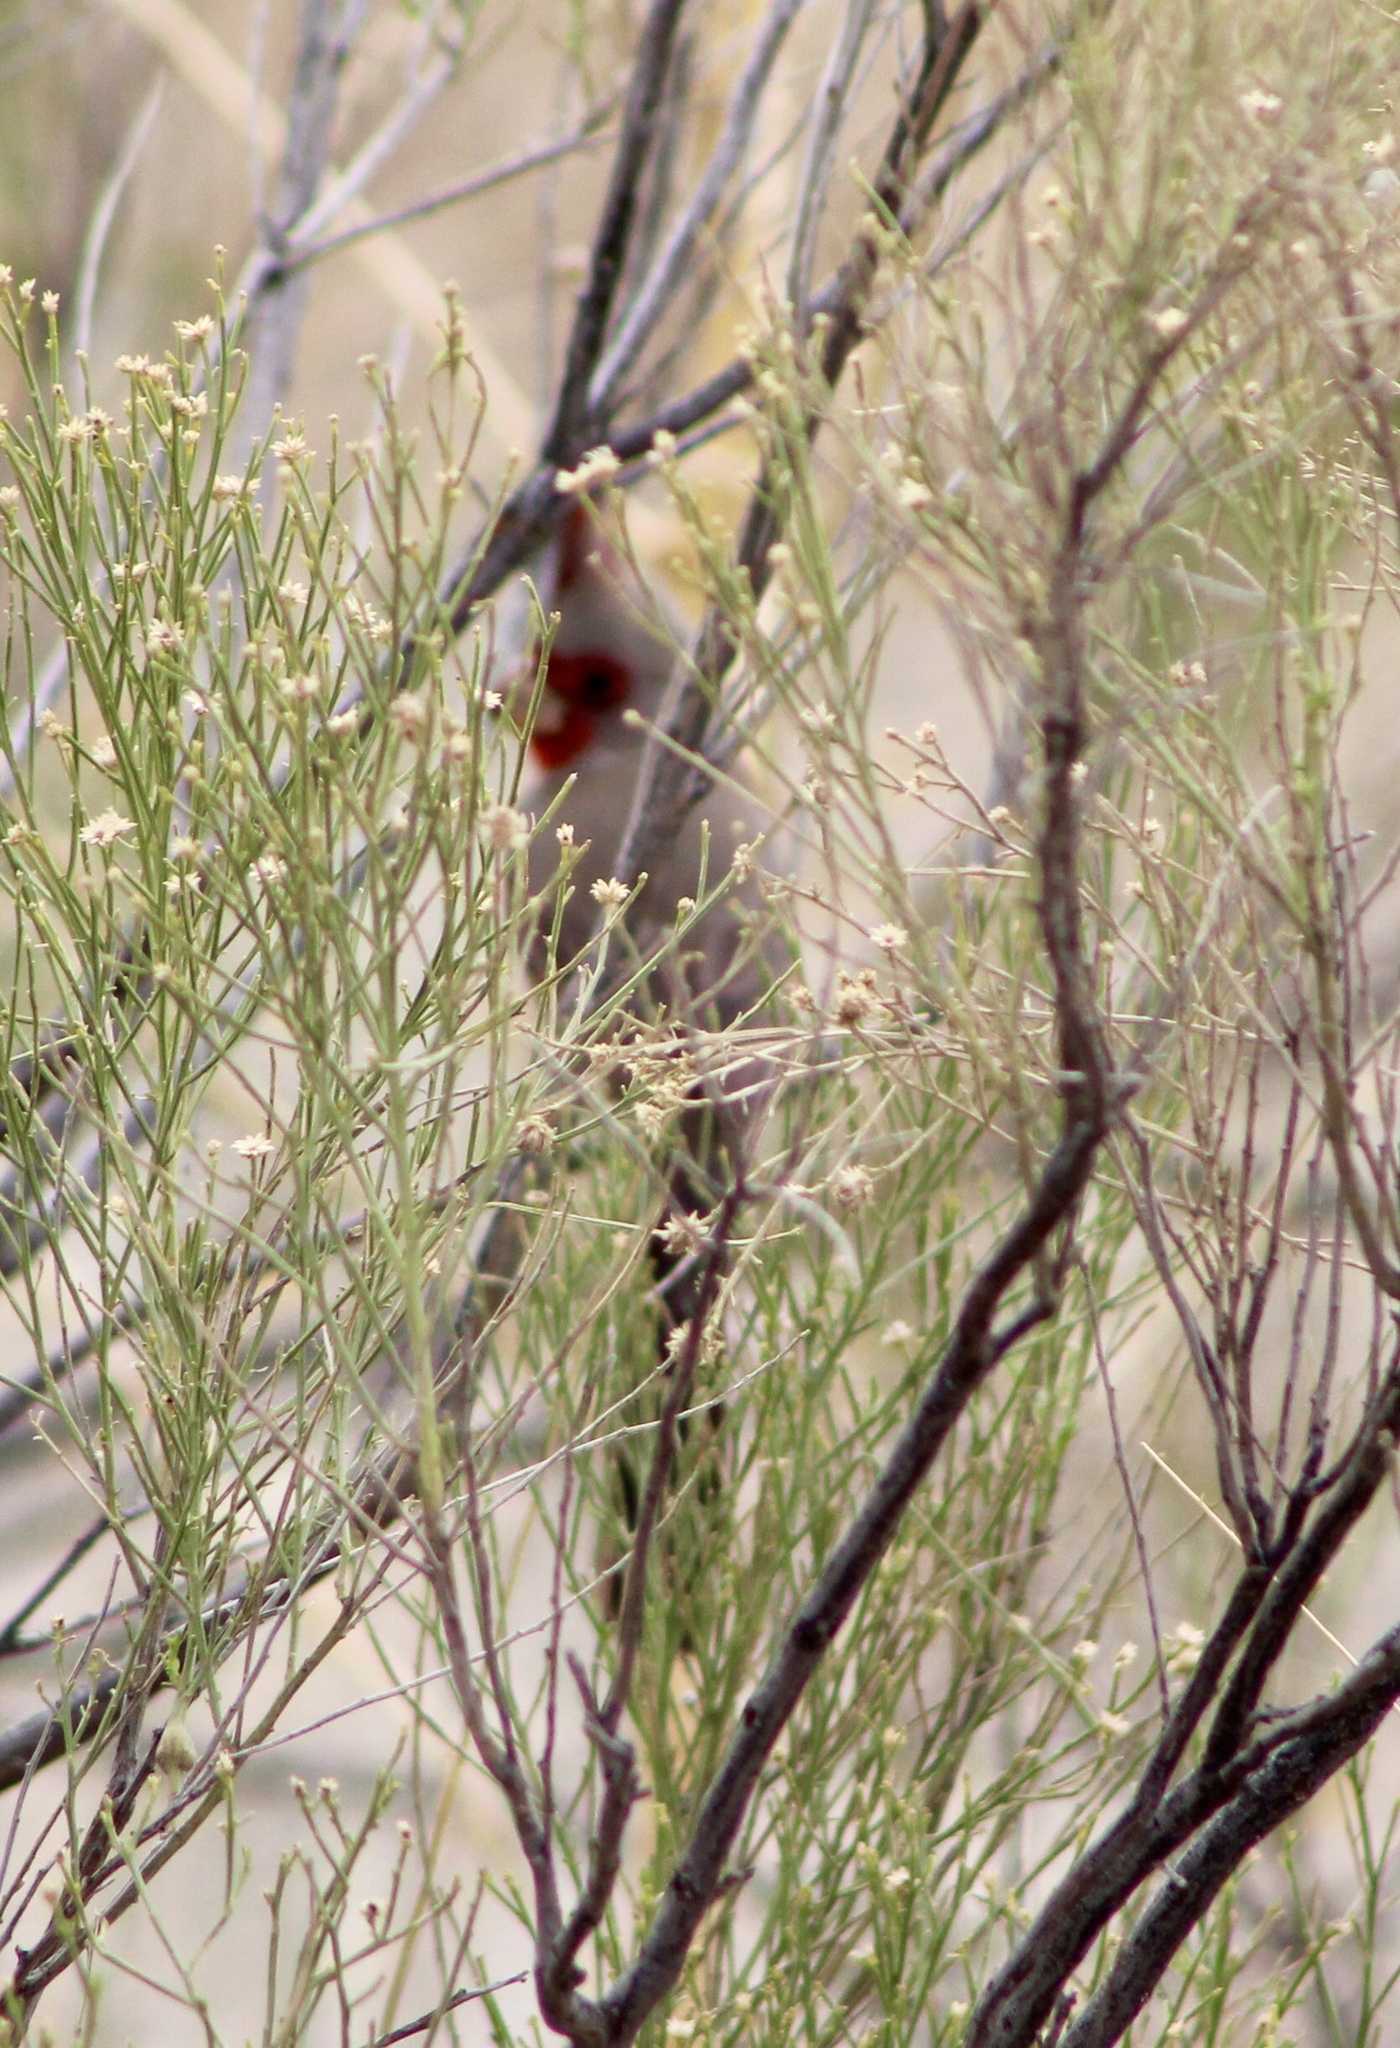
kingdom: Animalia
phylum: Chordata
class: Aves
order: Passeriformes
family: Cardinalidae
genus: Cardinalis
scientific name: Cardinalis sinuatus
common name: Pyrrhuloxia
